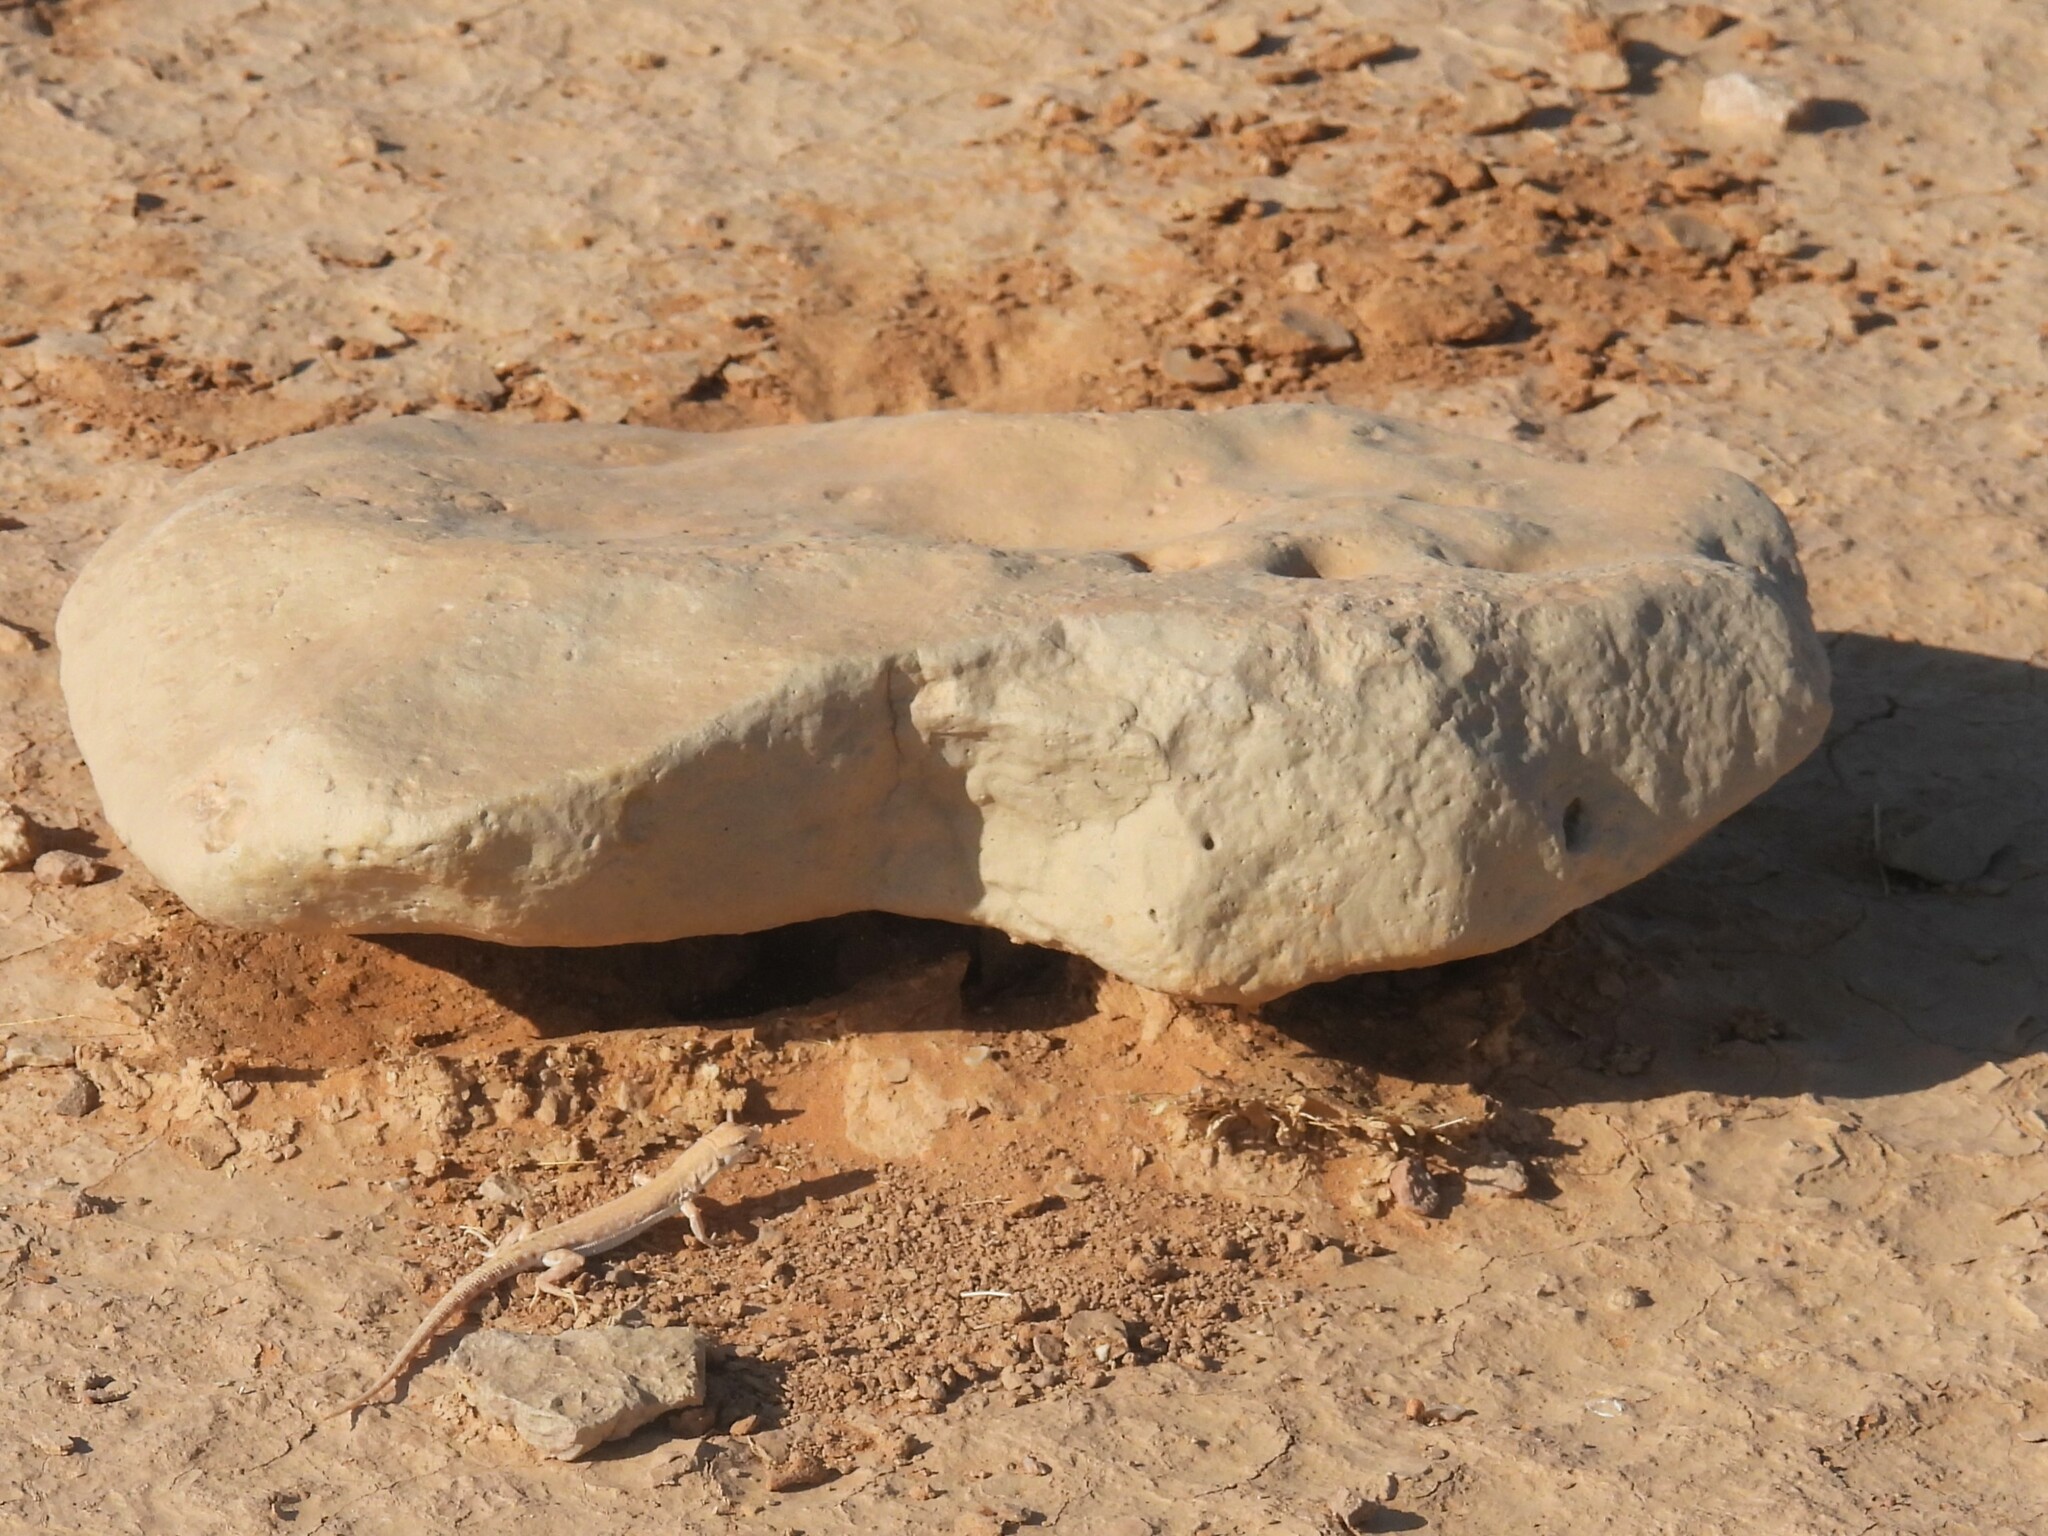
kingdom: Animalia
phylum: Chordata
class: Squamata
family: Lacertidae
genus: Mesalina
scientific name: Mesalina brevirostris
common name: Blanford's short-nosed desert lizard
